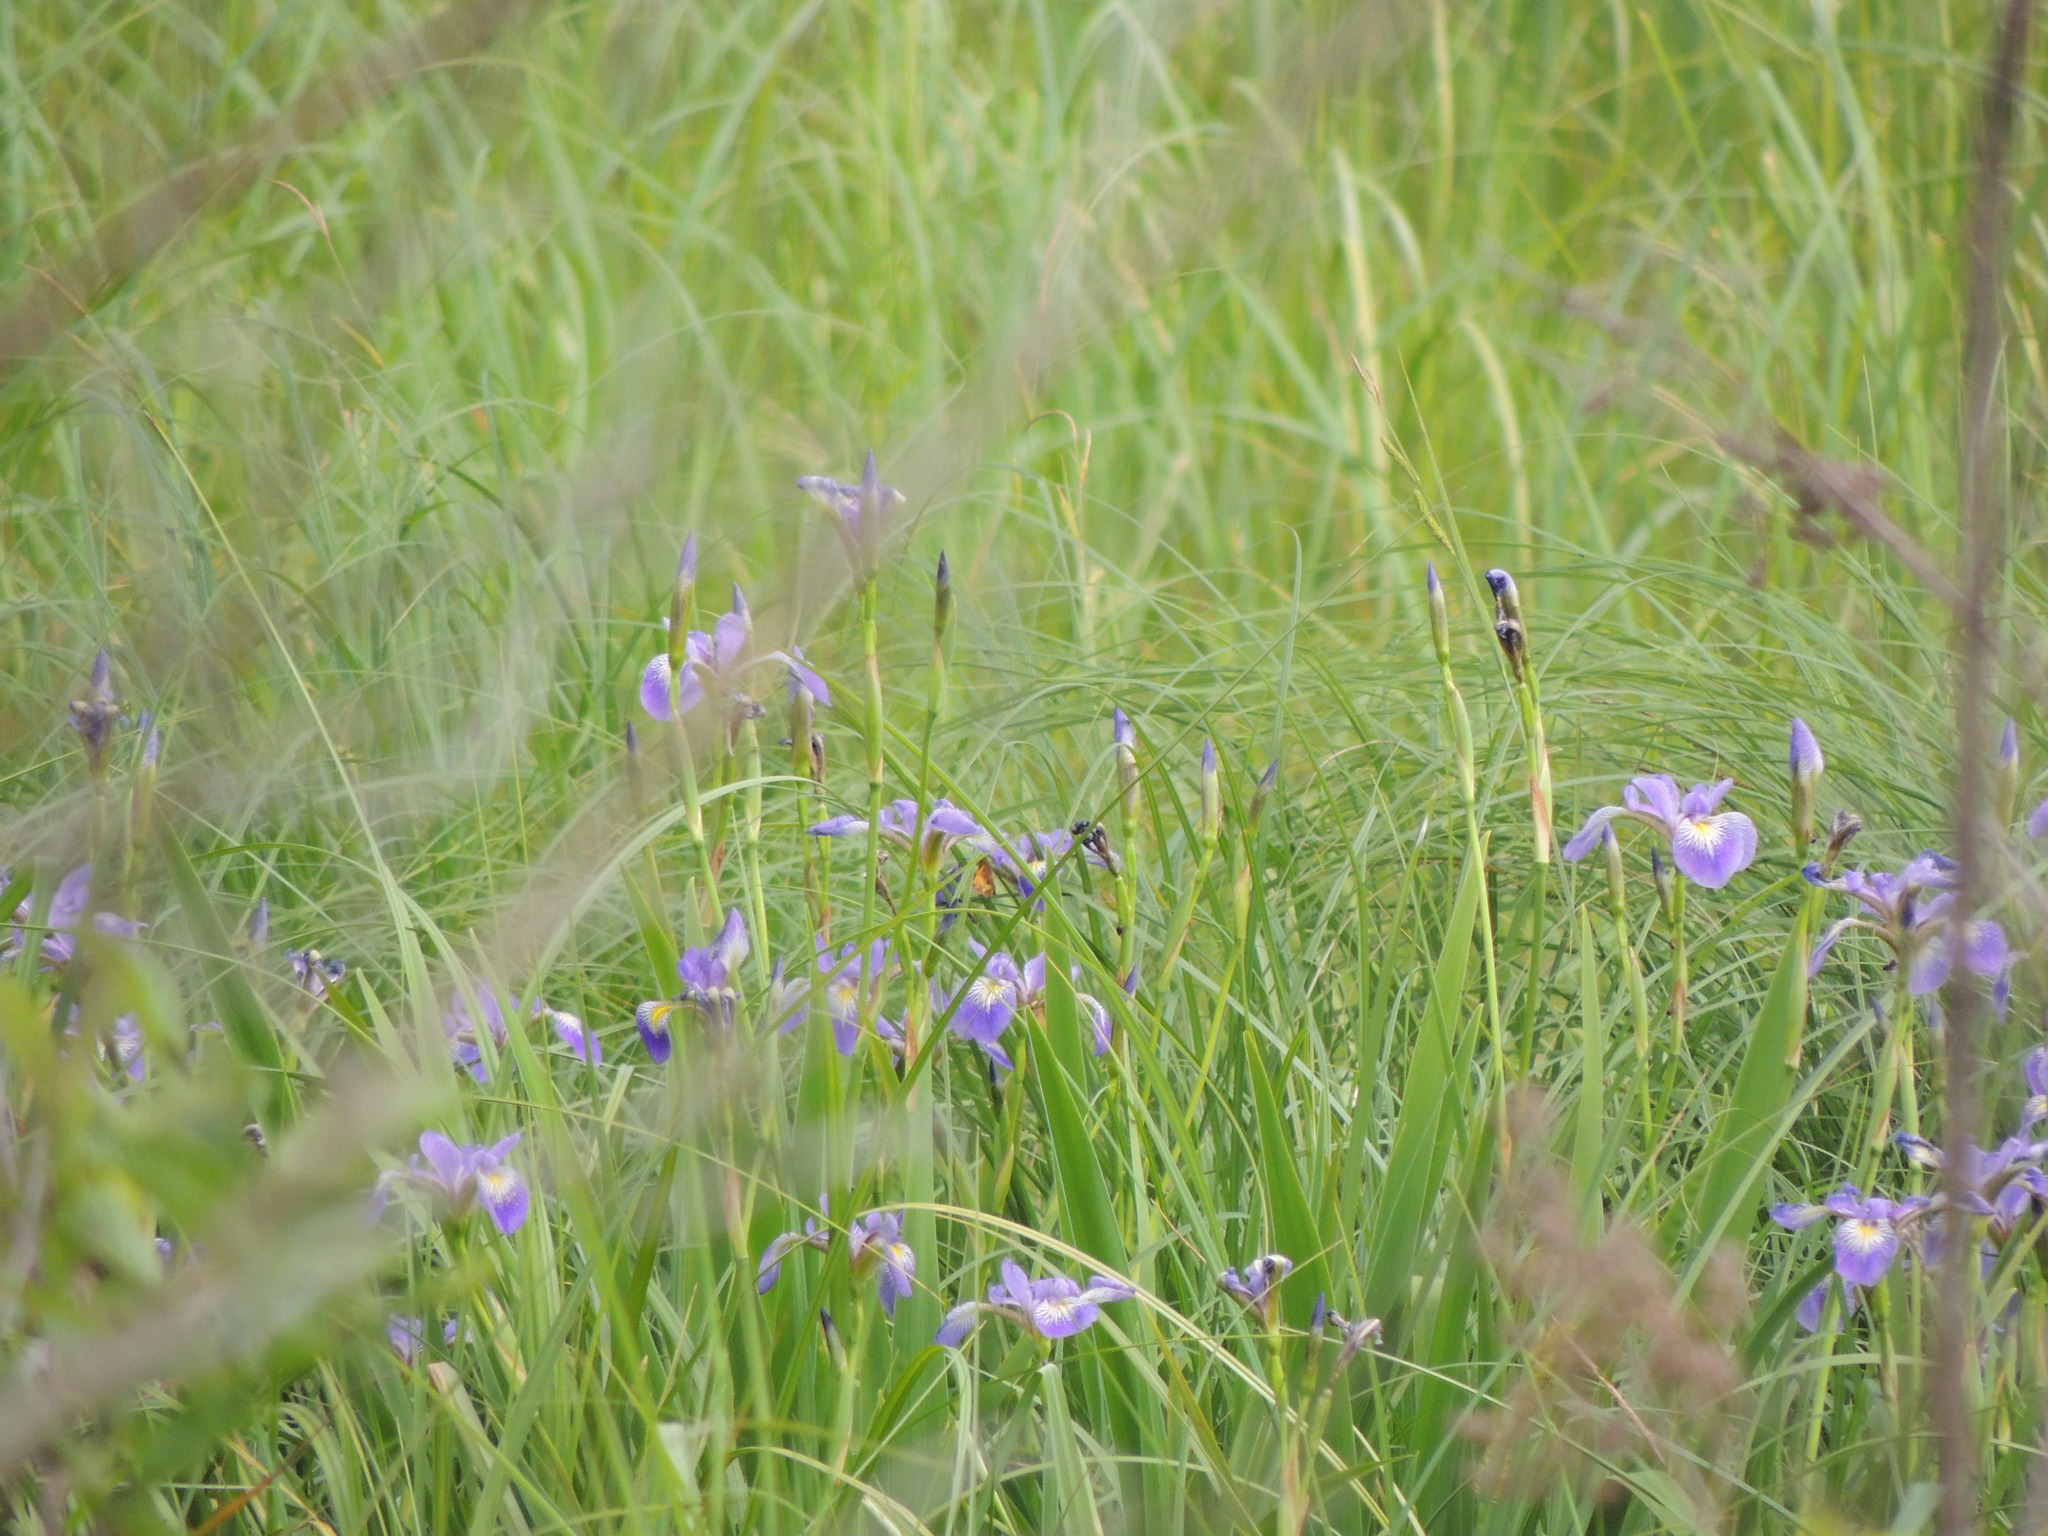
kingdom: Plantae
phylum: Tracheophyta
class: Liliopsida
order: Asparagales
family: Iridaceae
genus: Iris
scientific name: Iris versicolor
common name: Purple iris
